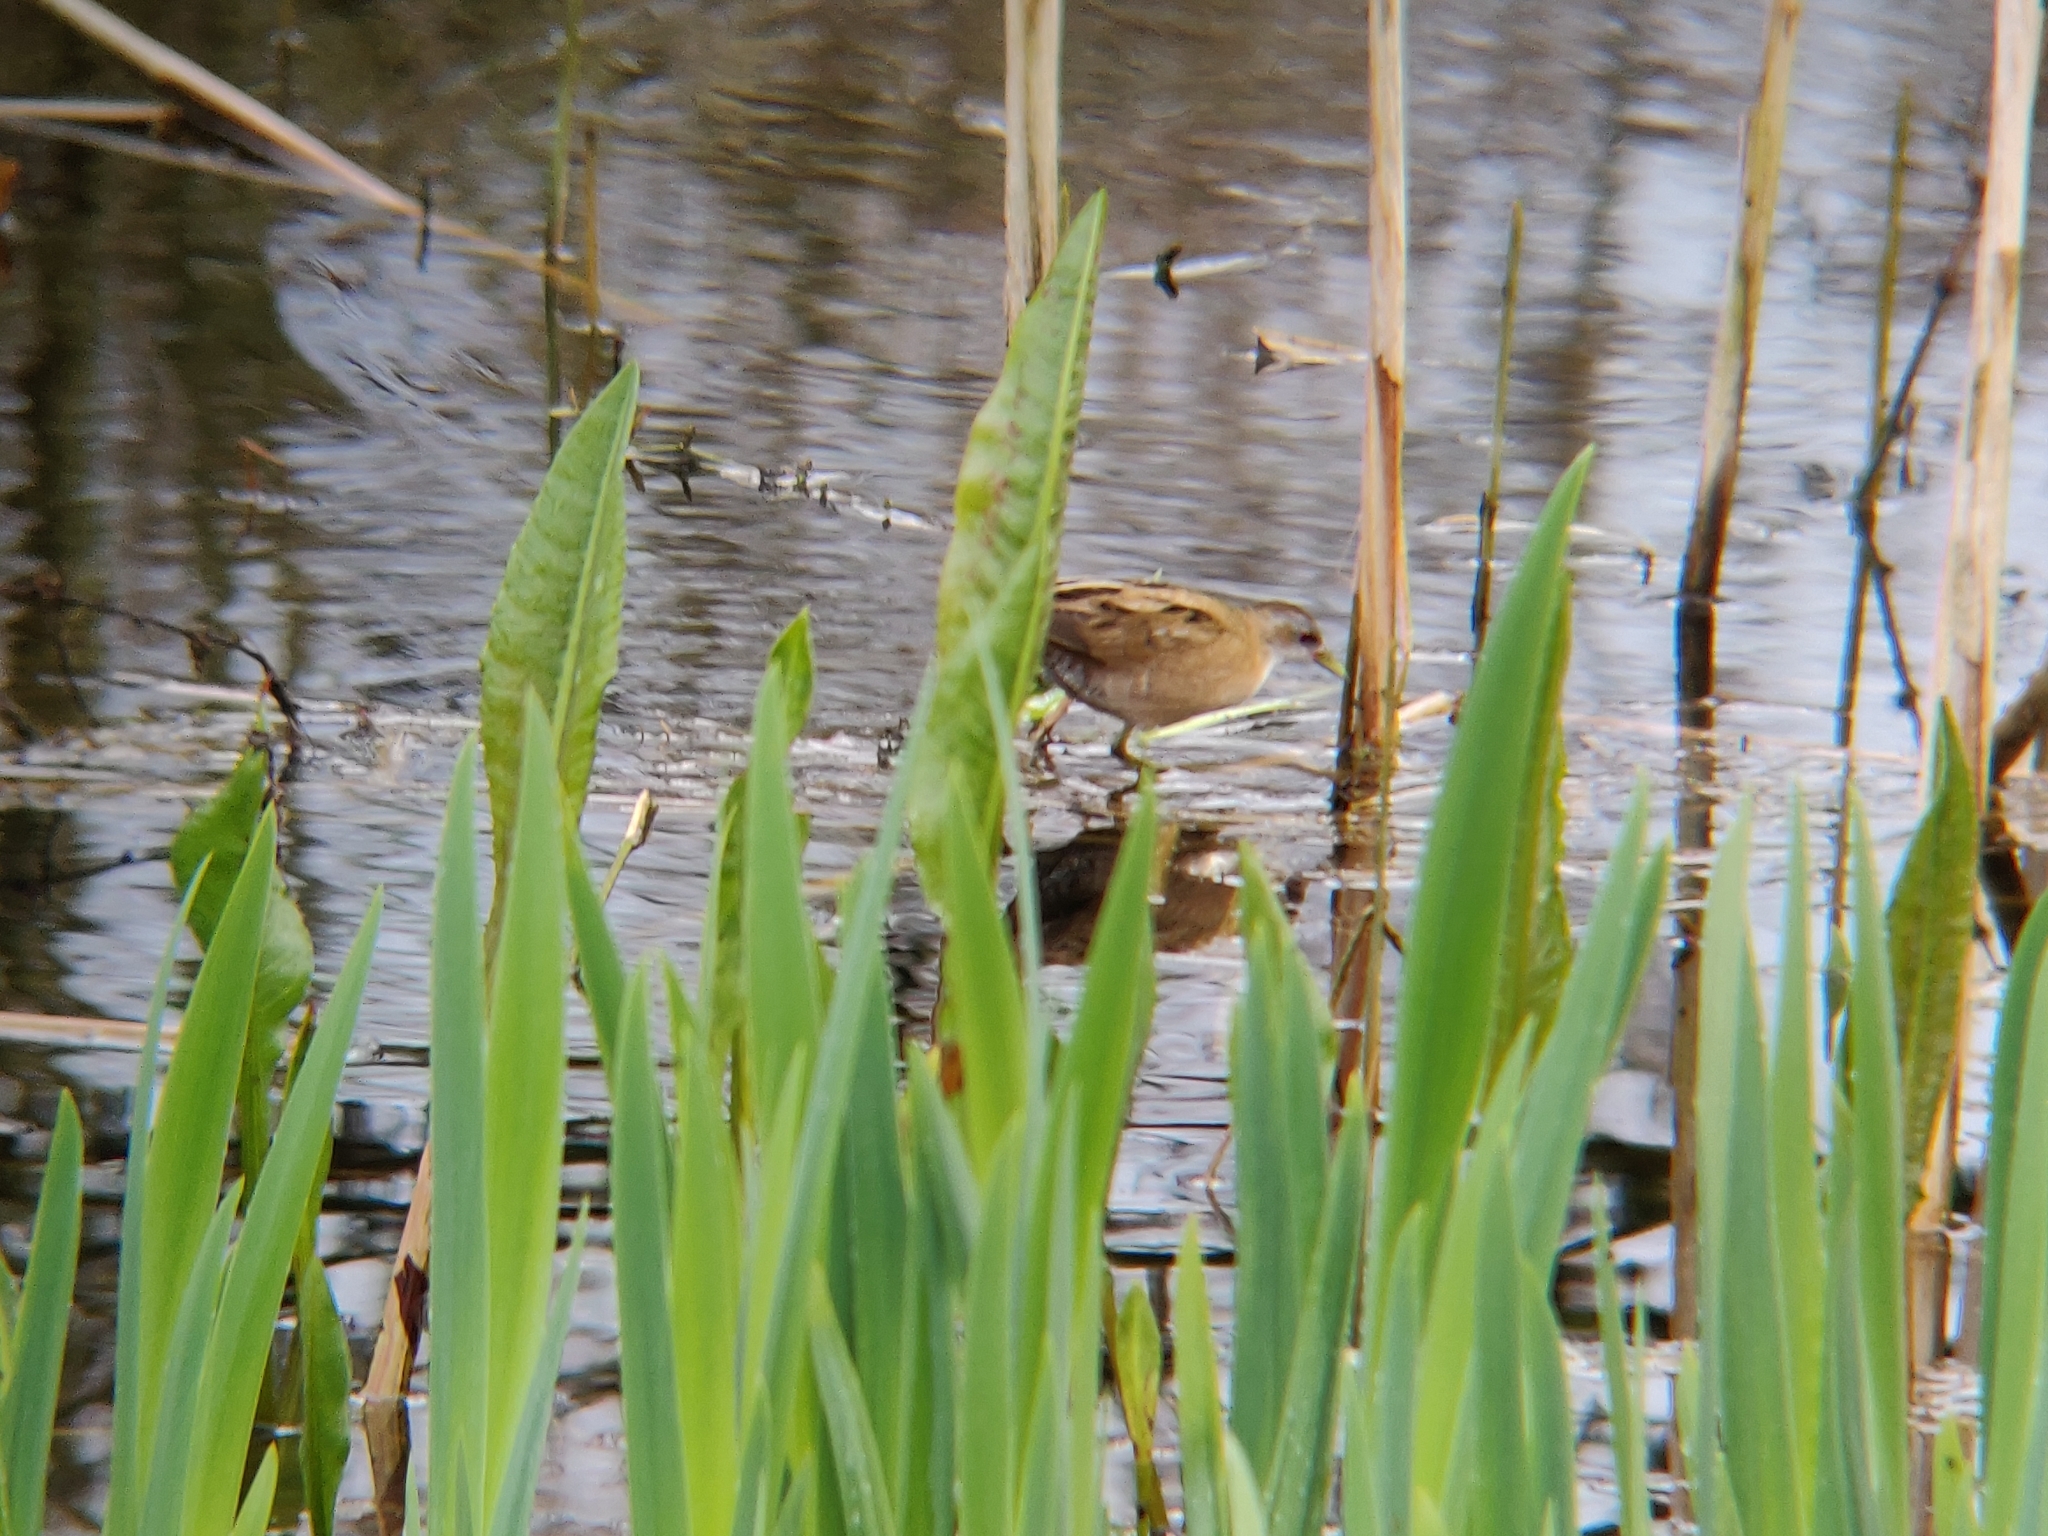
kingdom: Animalia
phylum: Chordata
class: Aves
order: Gruiformes
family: Rallidae
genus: Porzana
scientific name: Porzana parva
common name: Little crake
